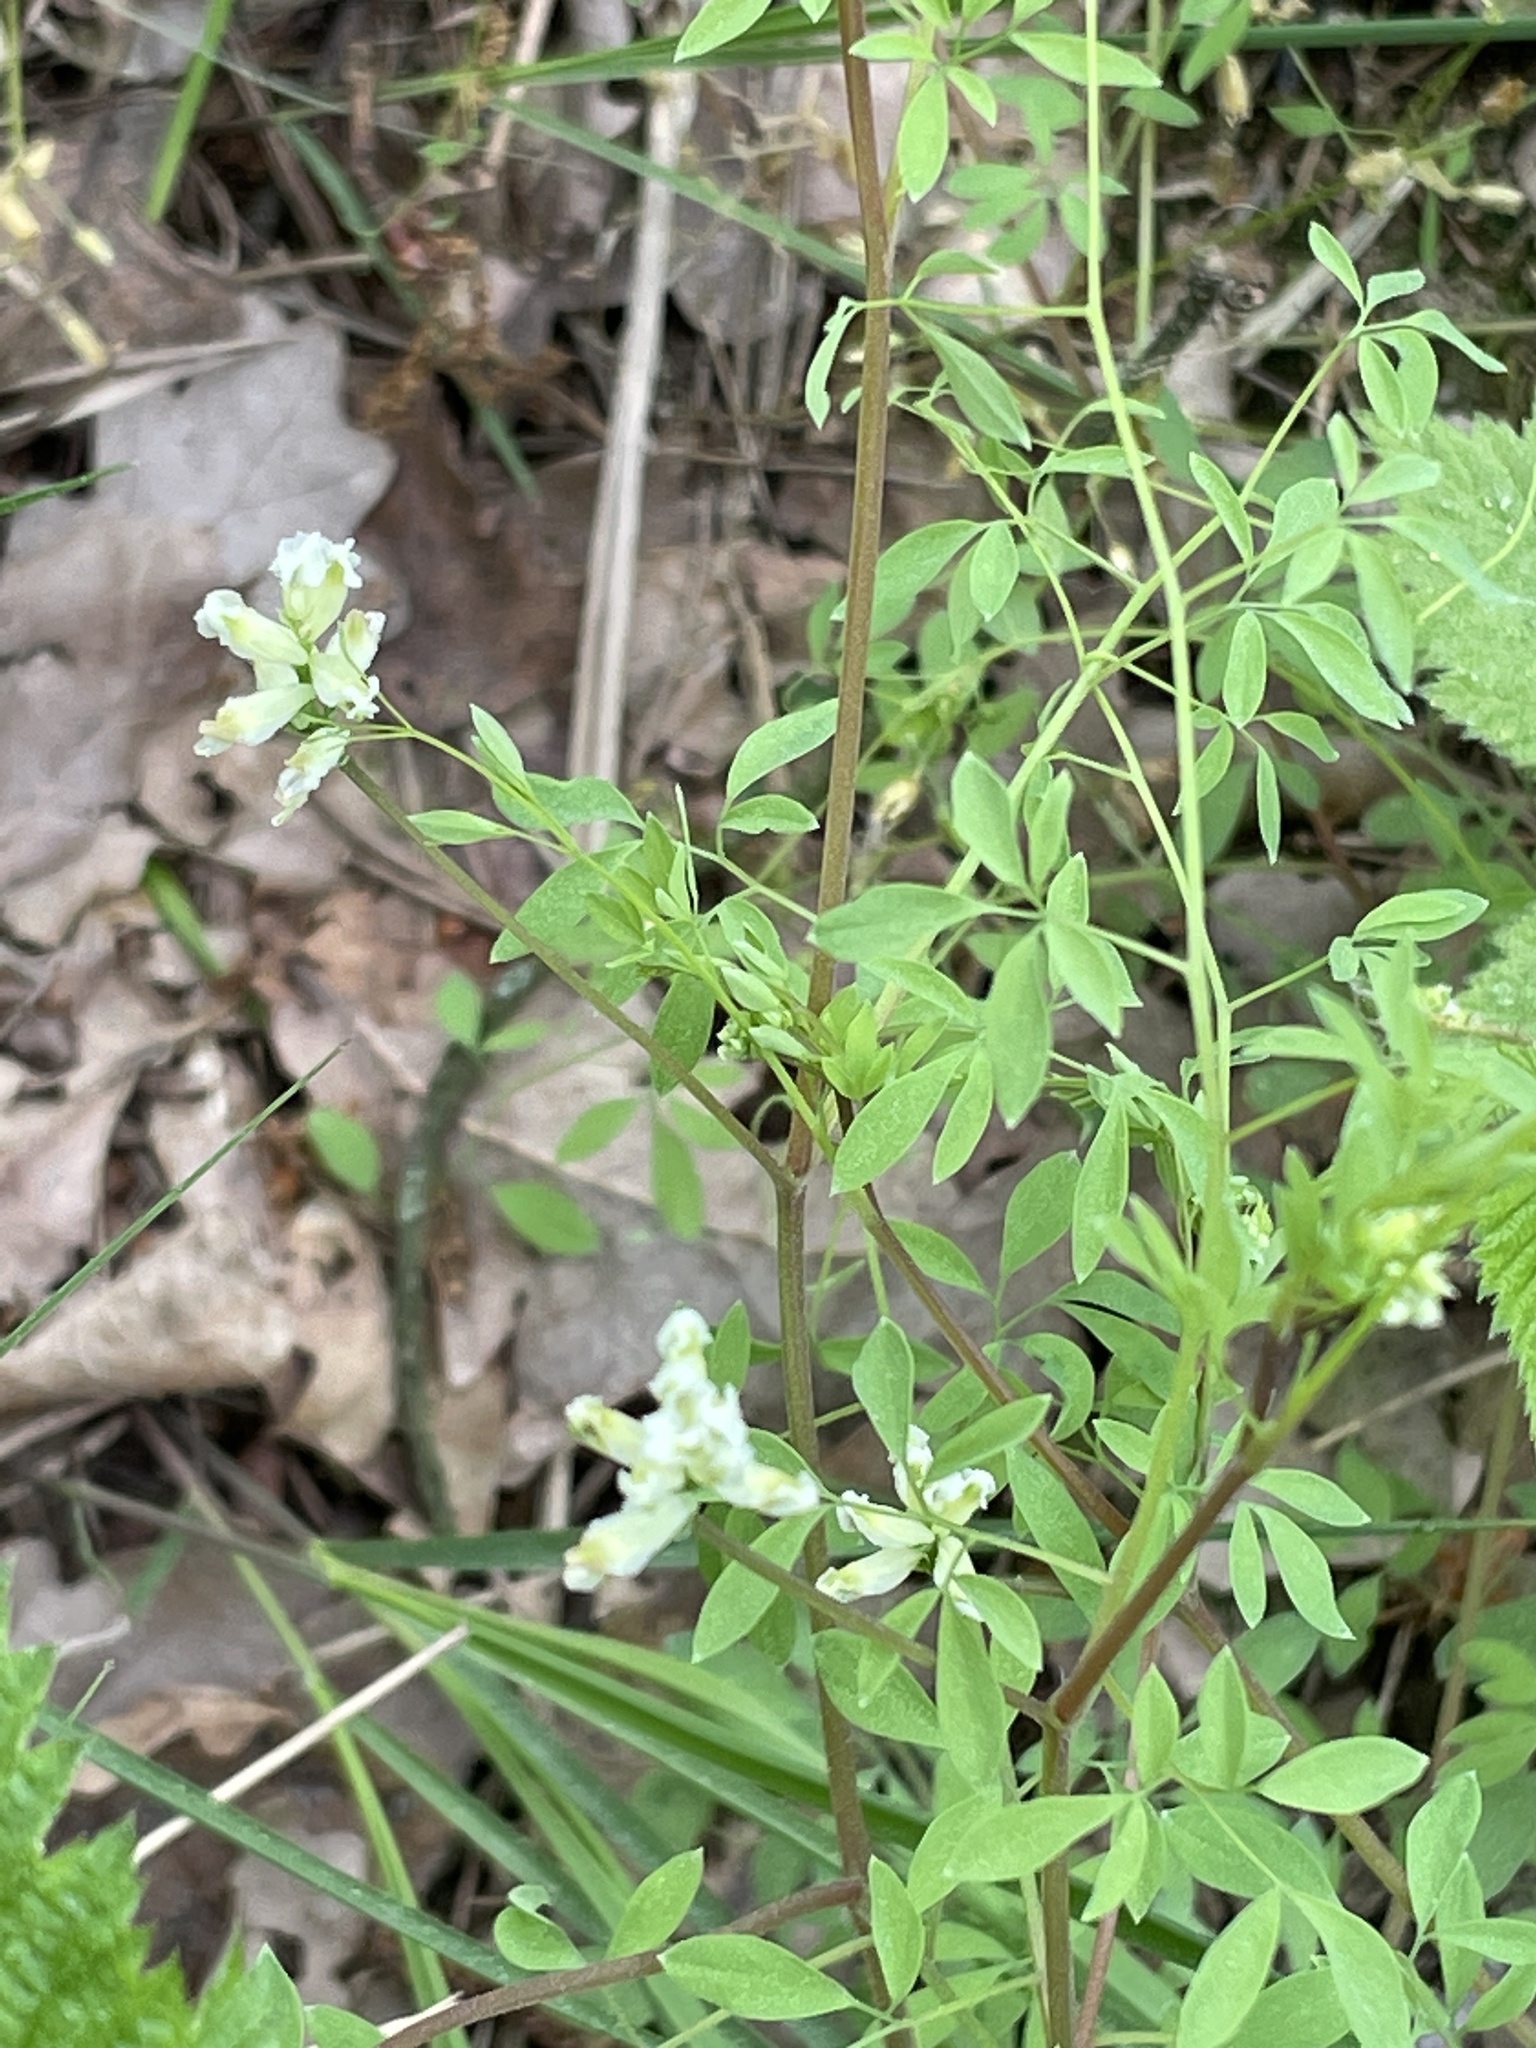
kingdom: Plantae
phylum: Tracheophyta
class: Magnoliopsida
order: Ranunculales
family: Papaveraceae
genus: Ceratocapnos
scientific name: Ceratocapnos claviculata
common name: Climbing corydalis
